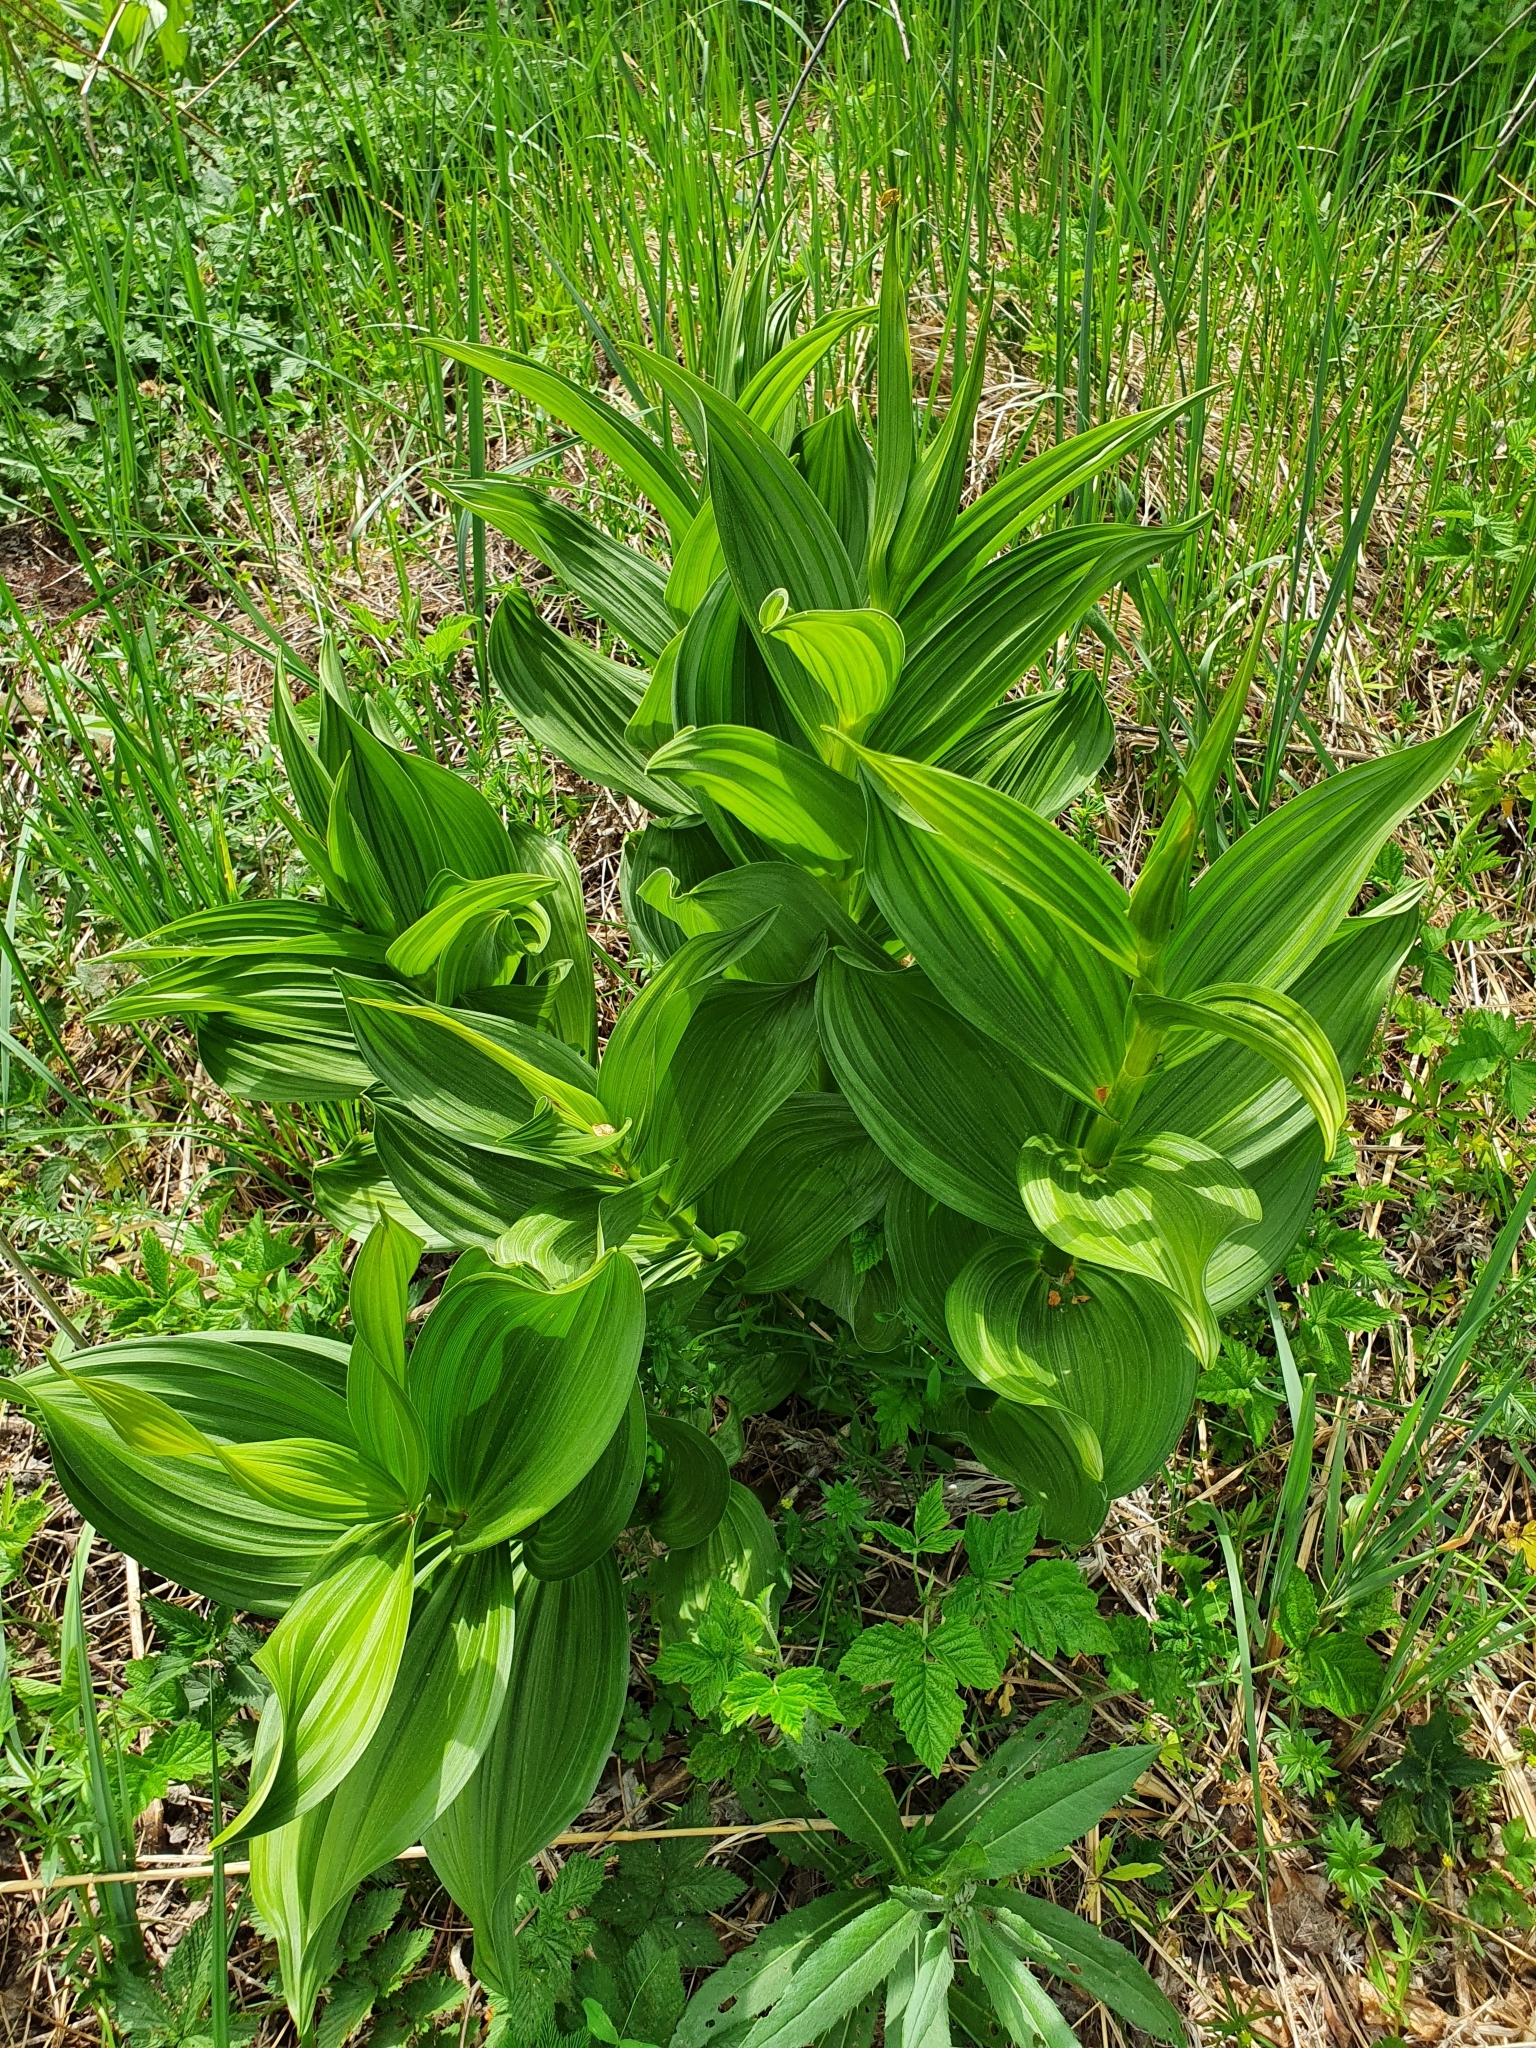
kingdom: Plantae
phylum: Tracheophyta
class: Liliopsida
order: Liliales
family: Melanthiaceae
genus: Veratrum
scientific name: Veratrum lobelianum
